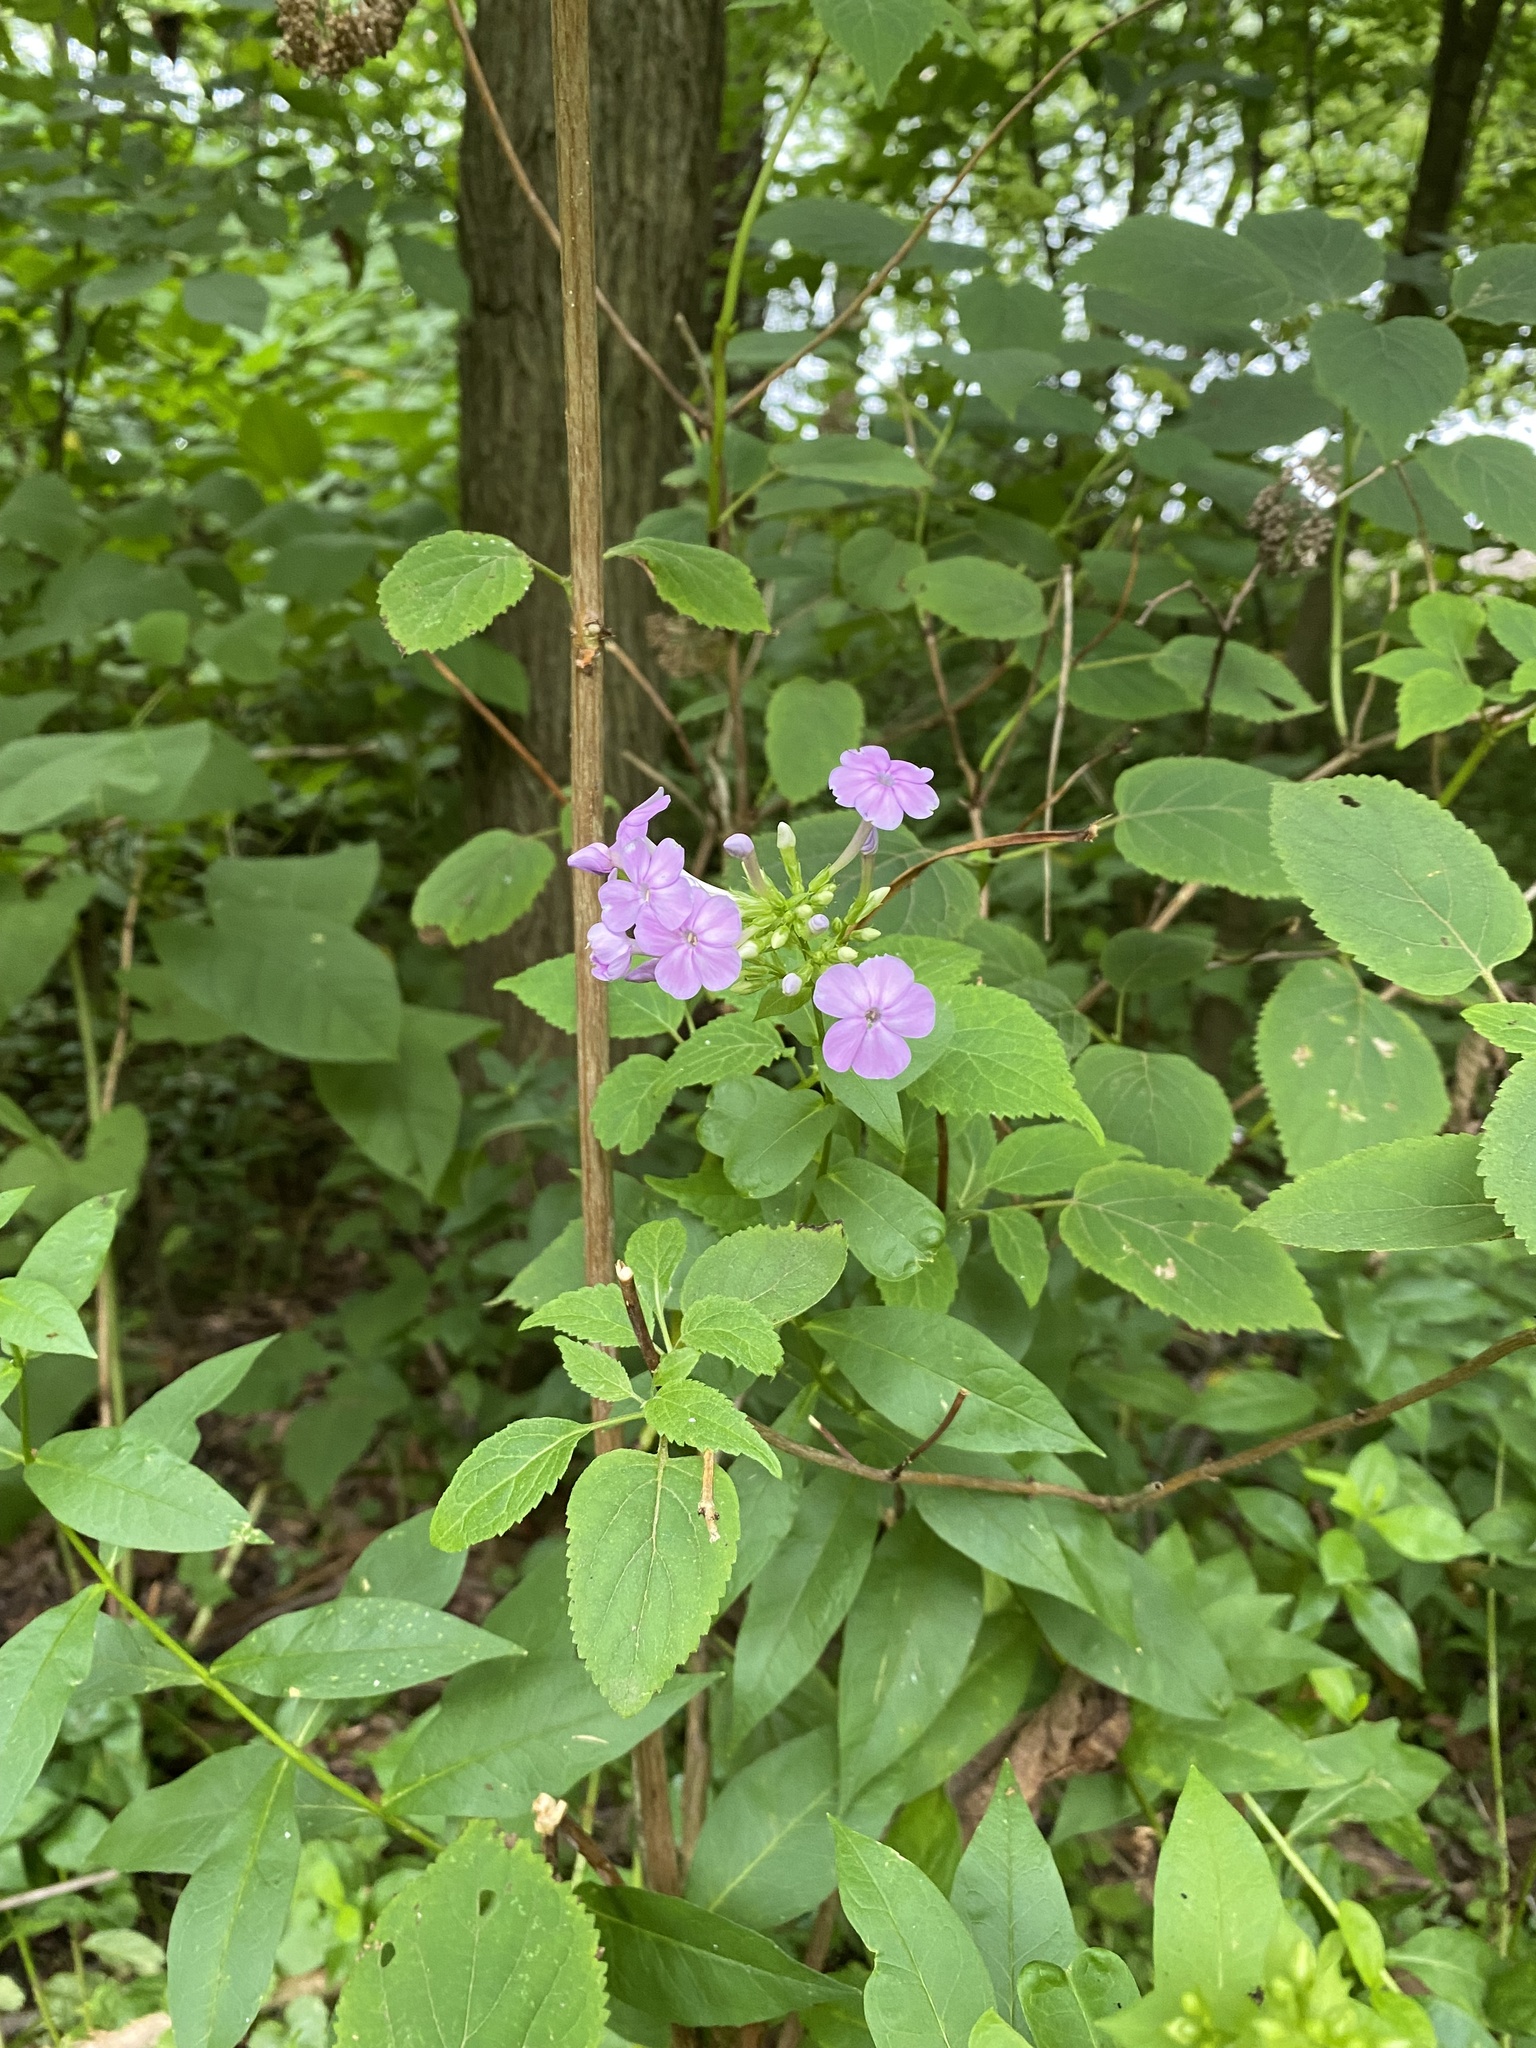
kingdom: Plantae
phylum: Tracheophyta
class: Magnoliopsida
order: Ericales
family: Polemoniaceae
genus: Phlox
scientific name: Phlox paniculata
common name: Fall phlox
